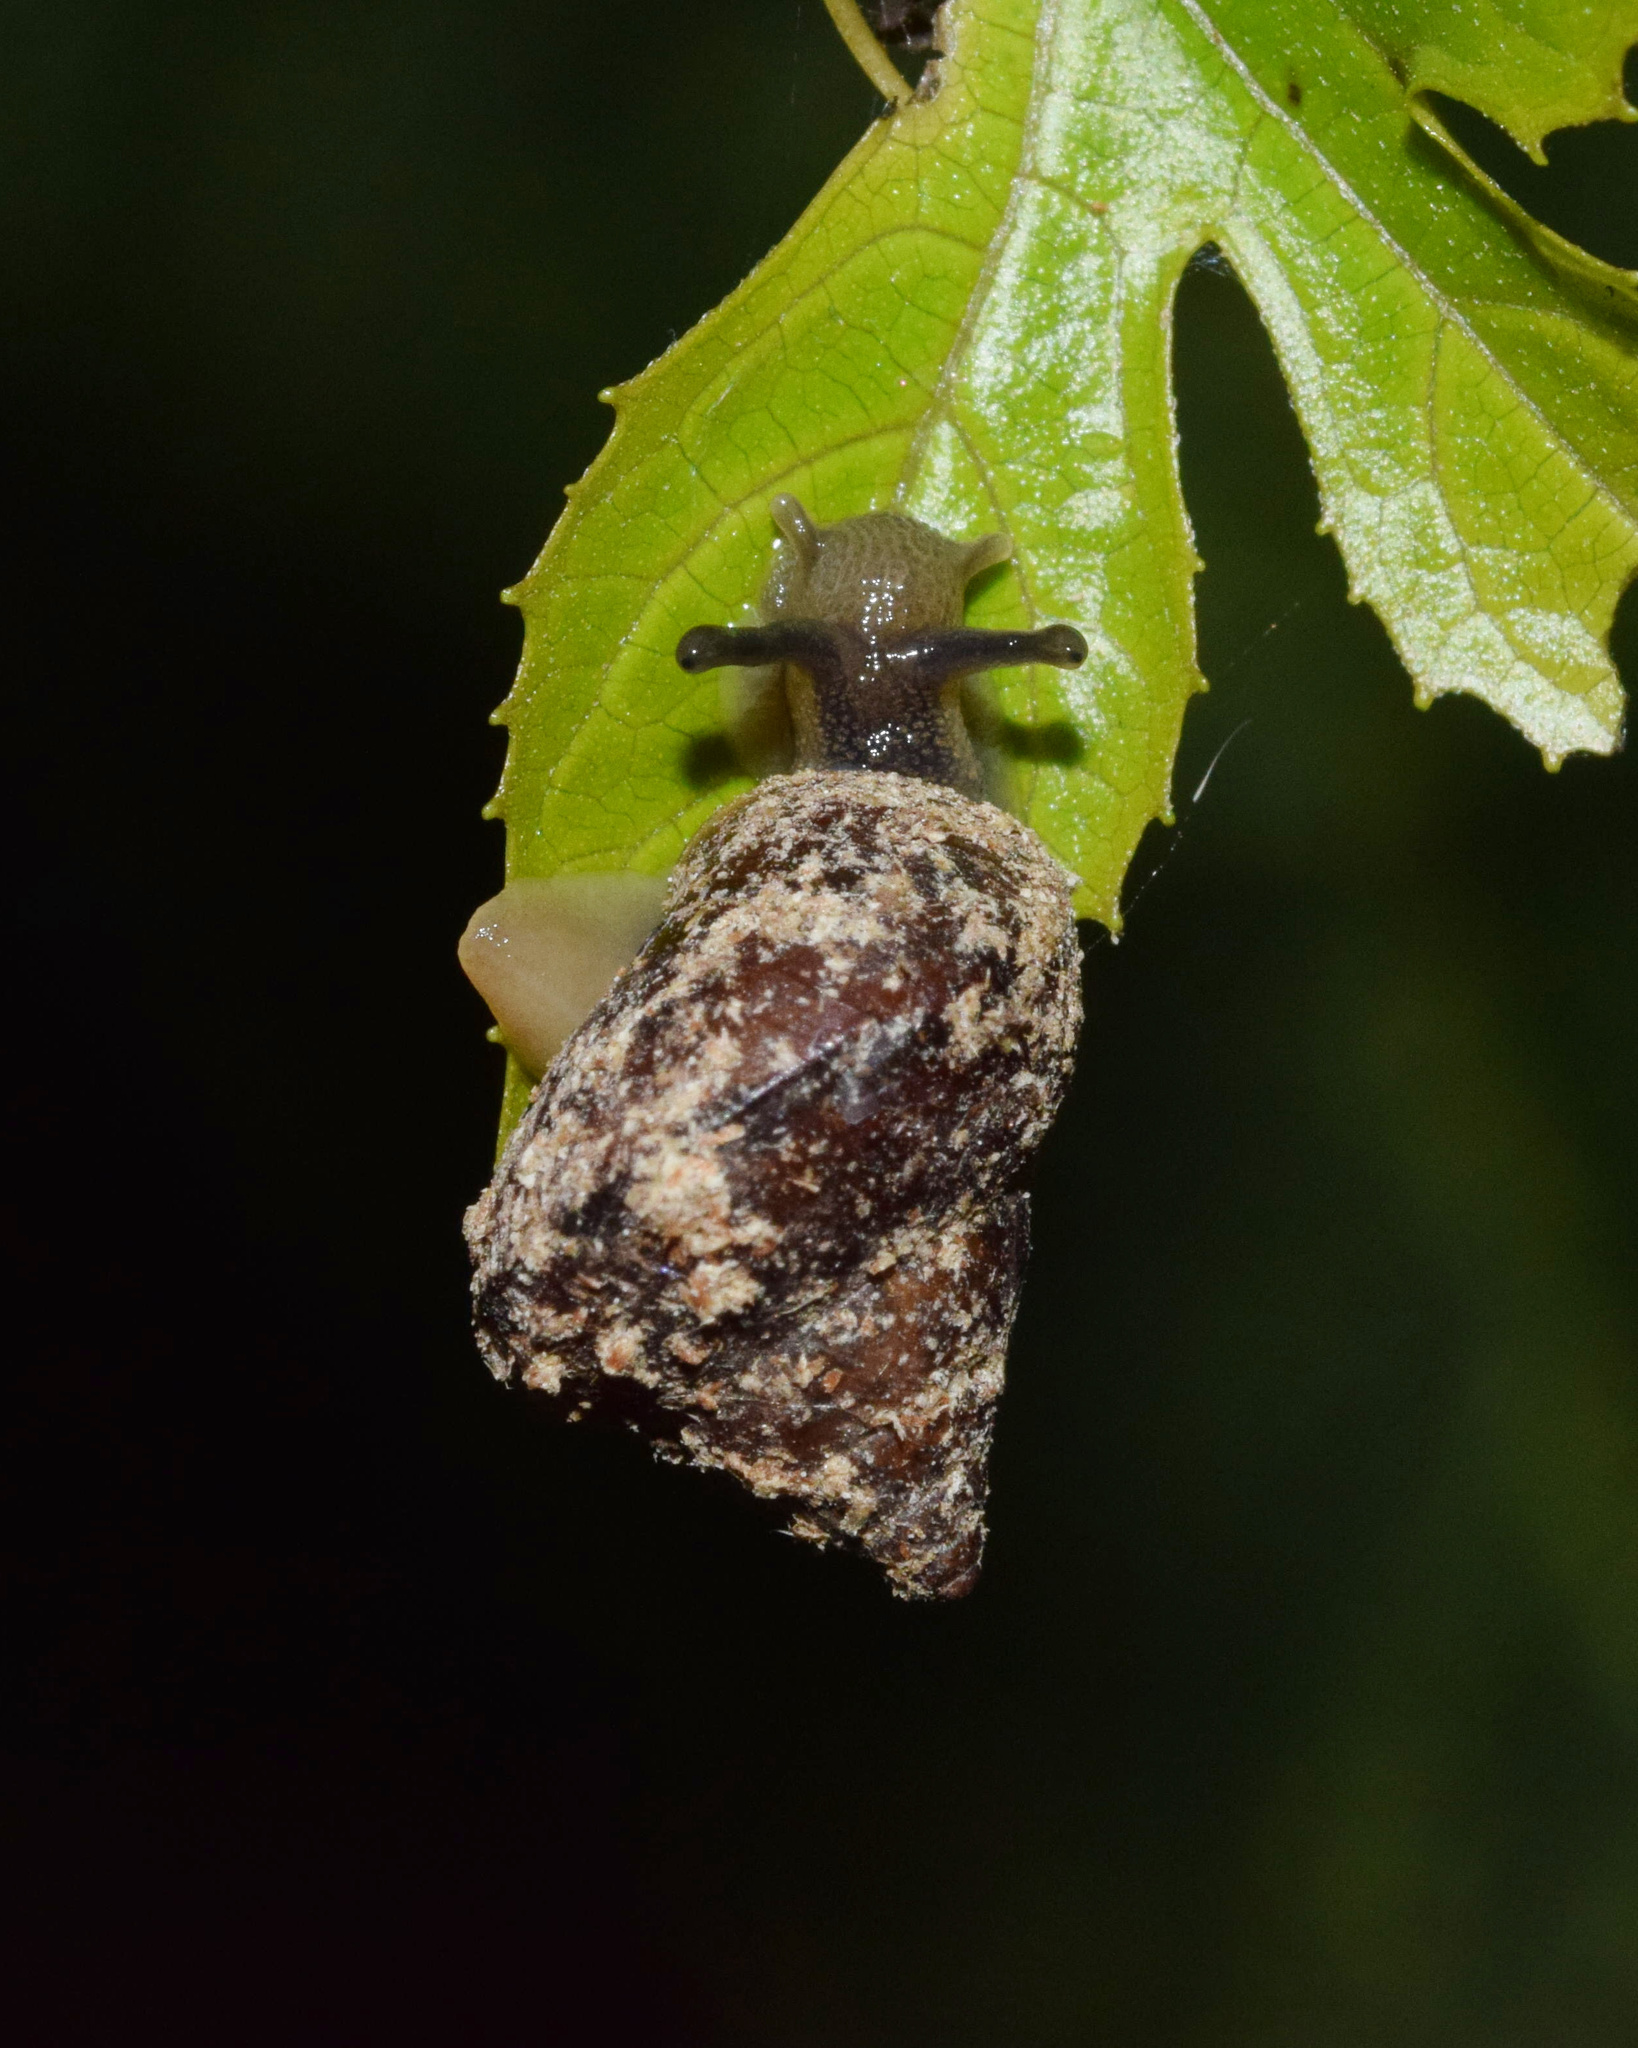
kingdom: Animalia
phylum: Mollusca
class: Gastropoda
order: Stylommatophora
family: Cerastidae
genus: Gittenedouardia
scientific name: Gittenedouardia natalensis
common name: Common bark snail
